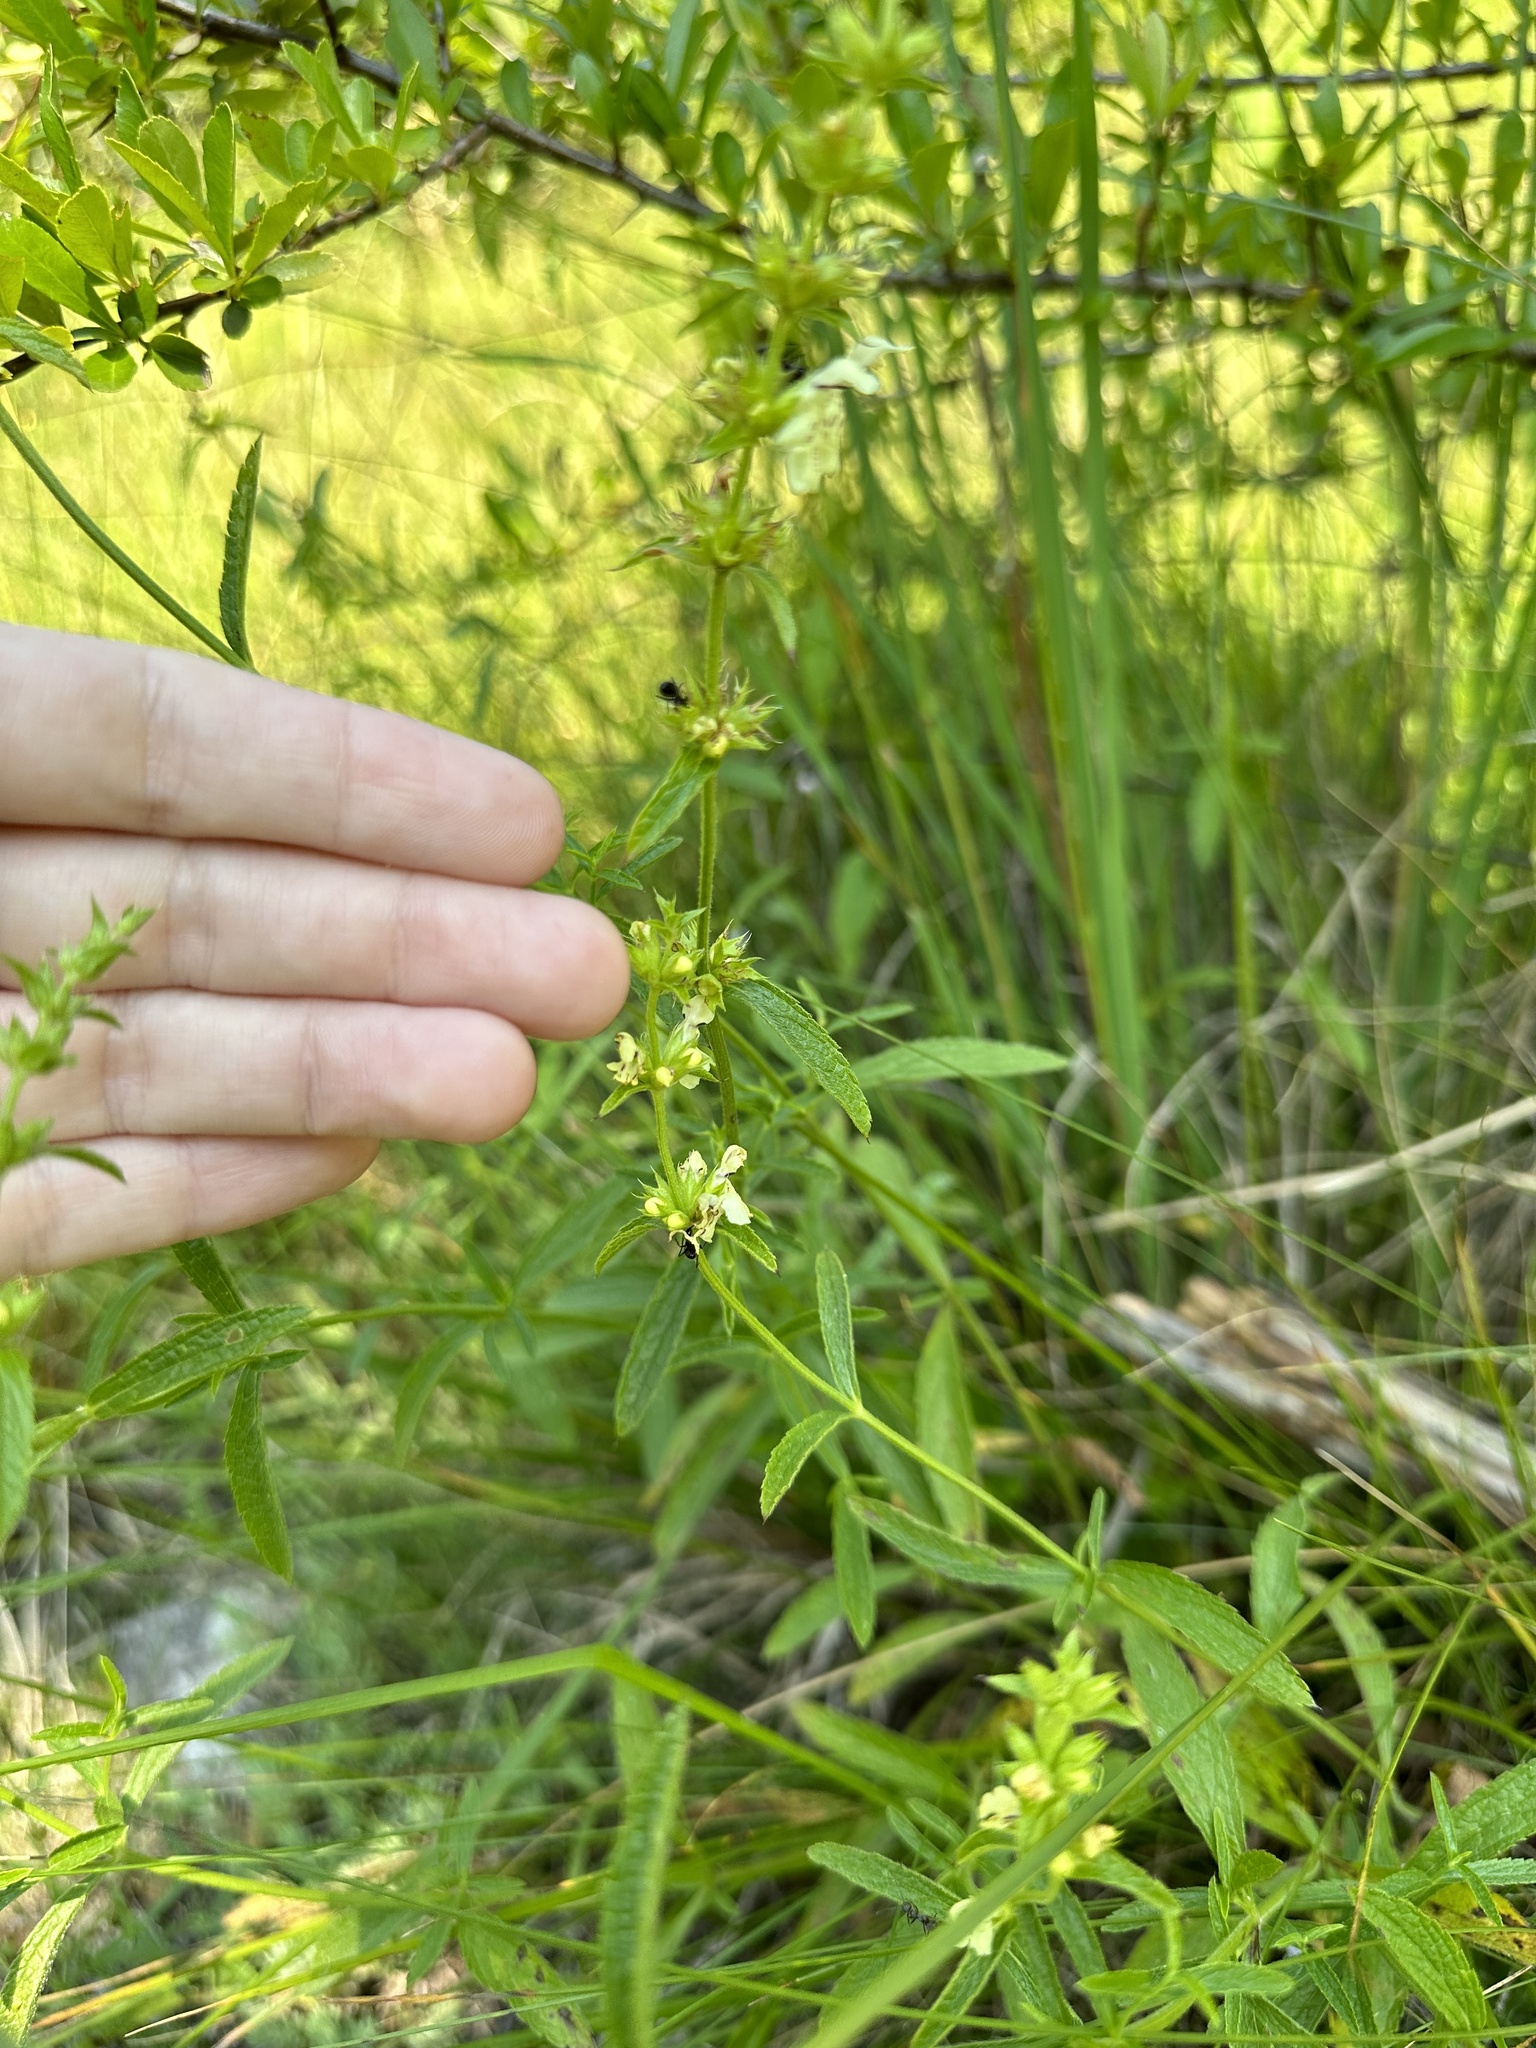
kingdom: Plantae
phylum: Tracheophyta
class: Magnoliopsida
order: Lamiales
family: Lamiaceae
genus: Stachys
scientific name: Stachys recta
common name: Perennial yellow-woundwort
